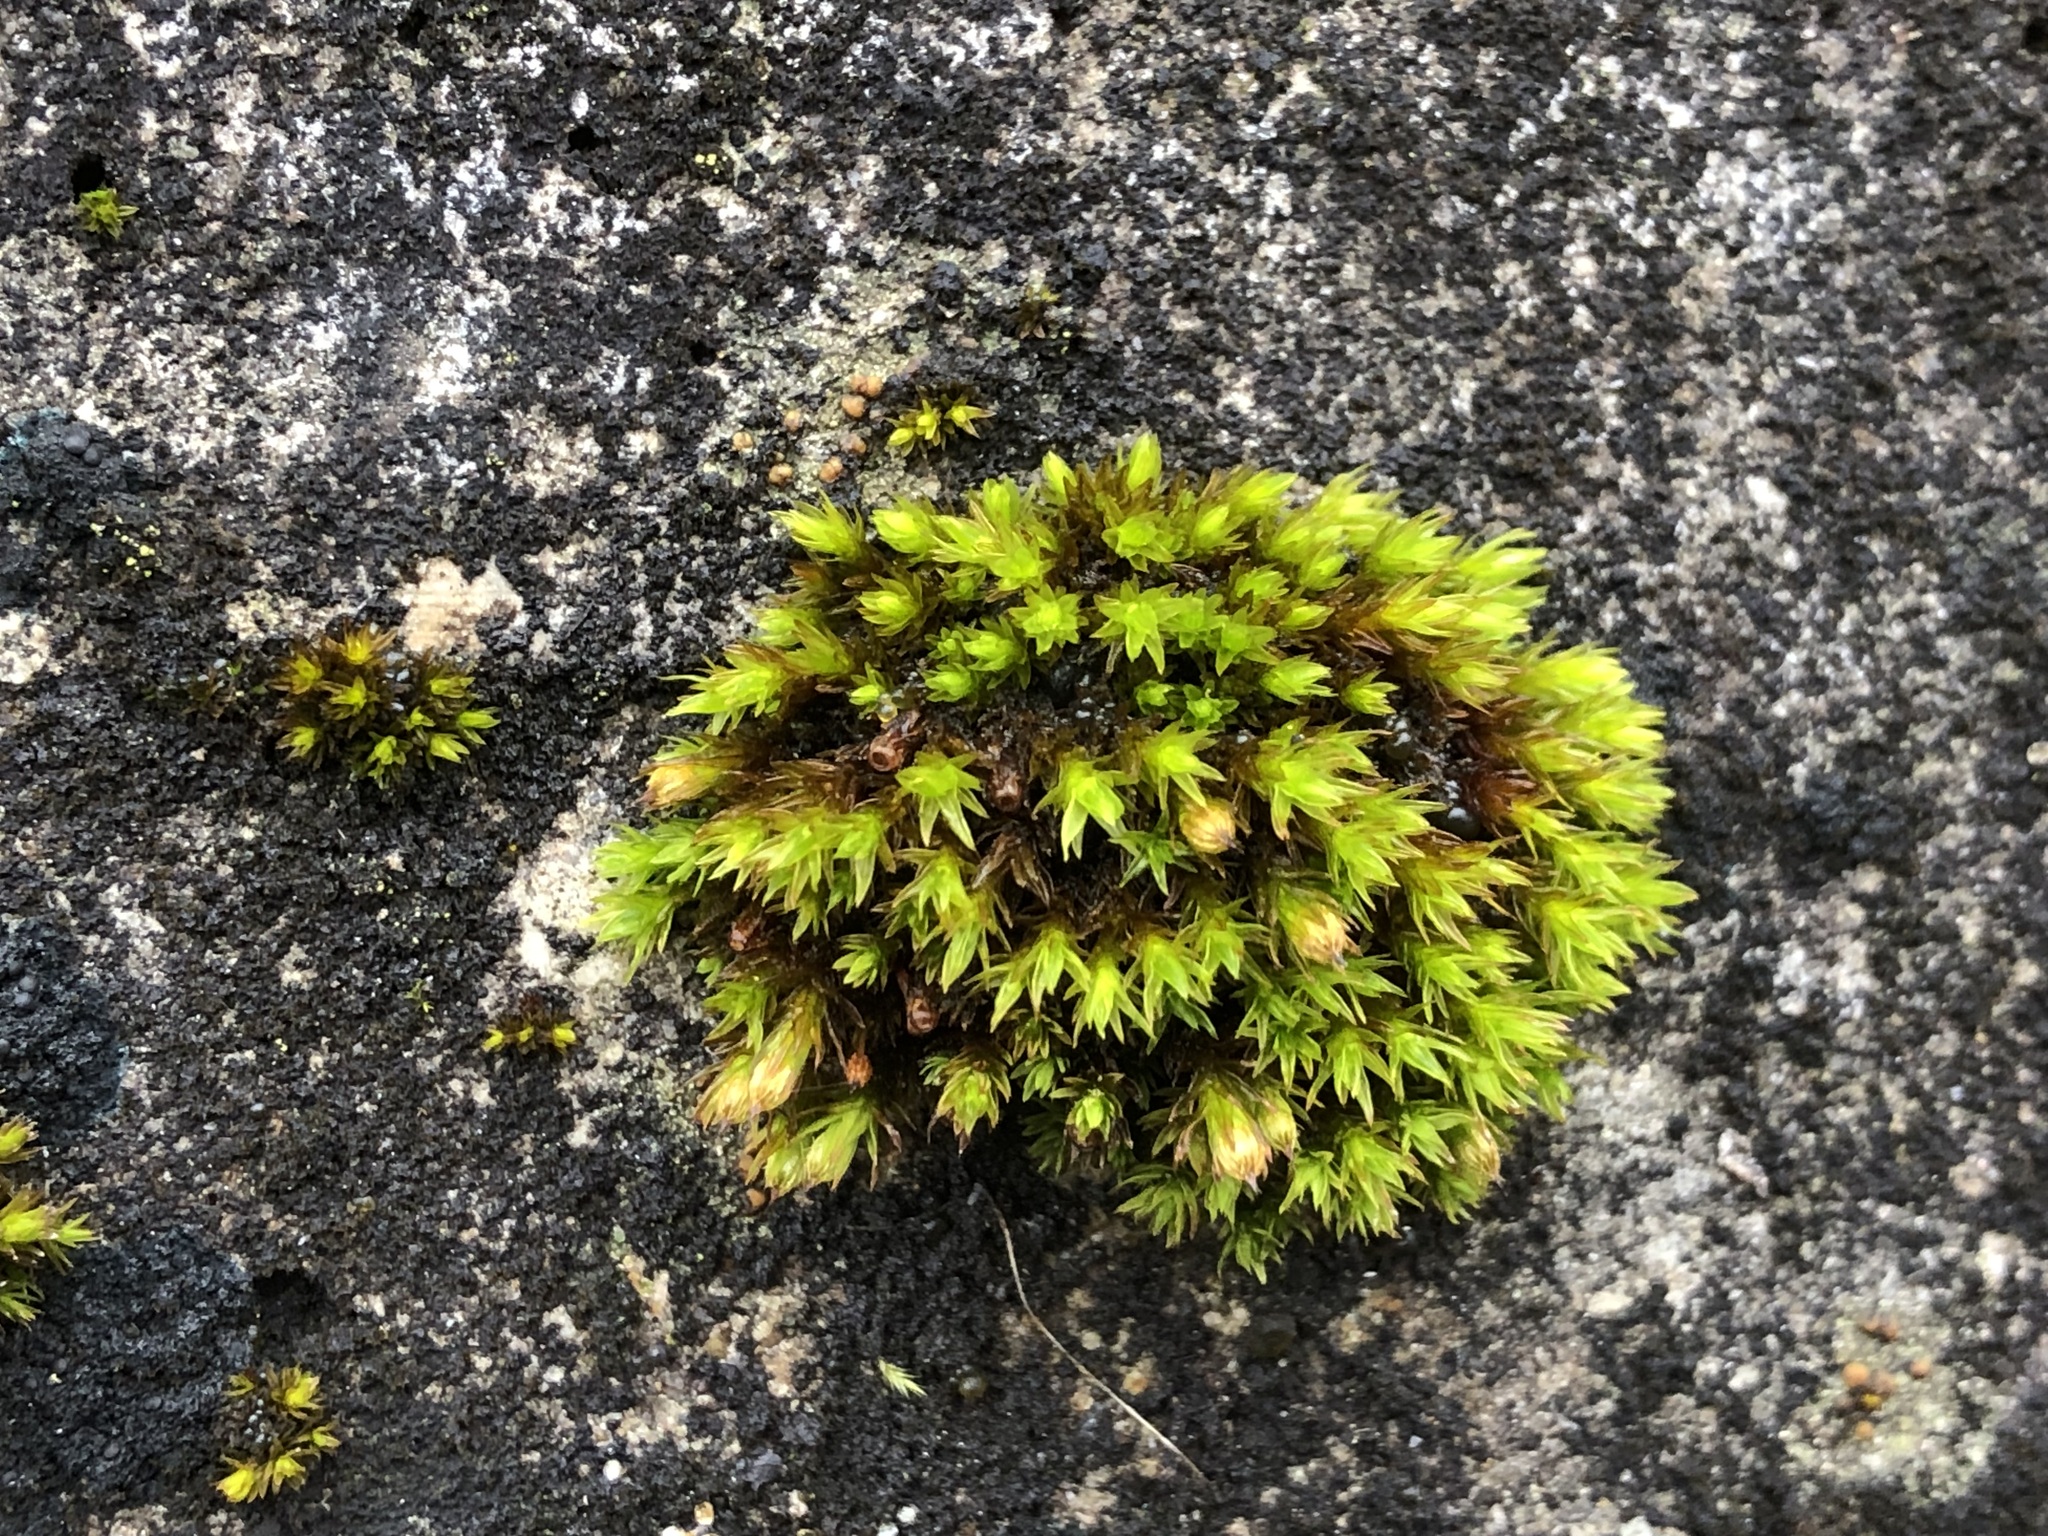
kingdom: Plantae
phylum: Bryophyta
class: Bryopsida
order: Orthotrichales
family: Orthotrichaceae
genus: Orthotrichum
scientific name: Orthotrichum anomalum
